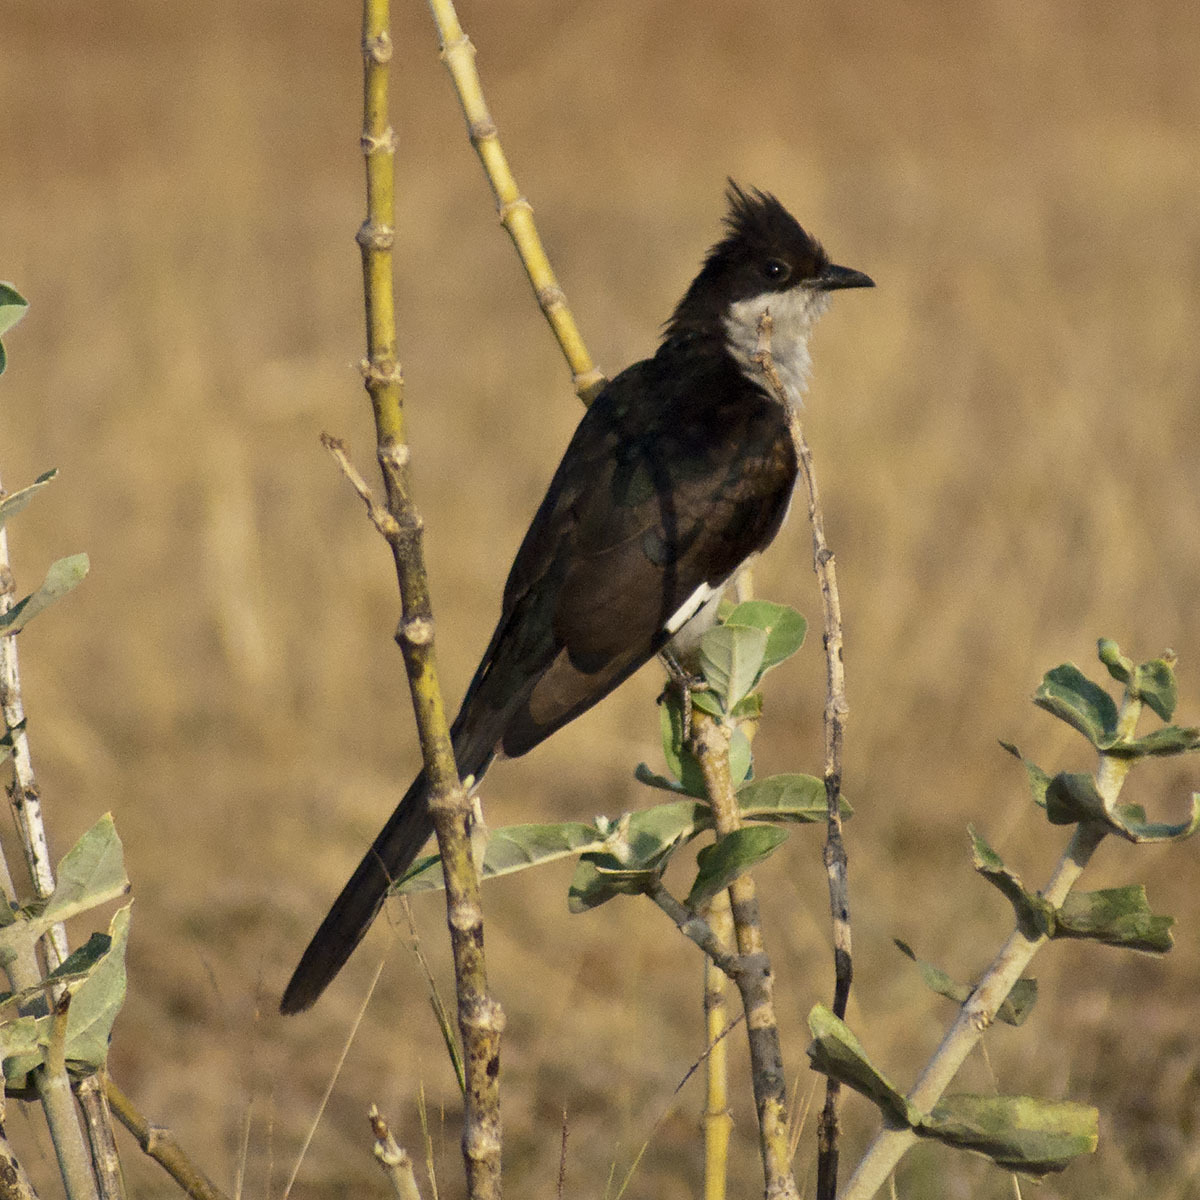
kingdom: Animalia
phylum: Chordata
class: Aves
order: Cuculiformes
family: Cuculidae
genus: Clamator
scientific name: Clamator jacobinus
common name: Jacobin cuckoo
